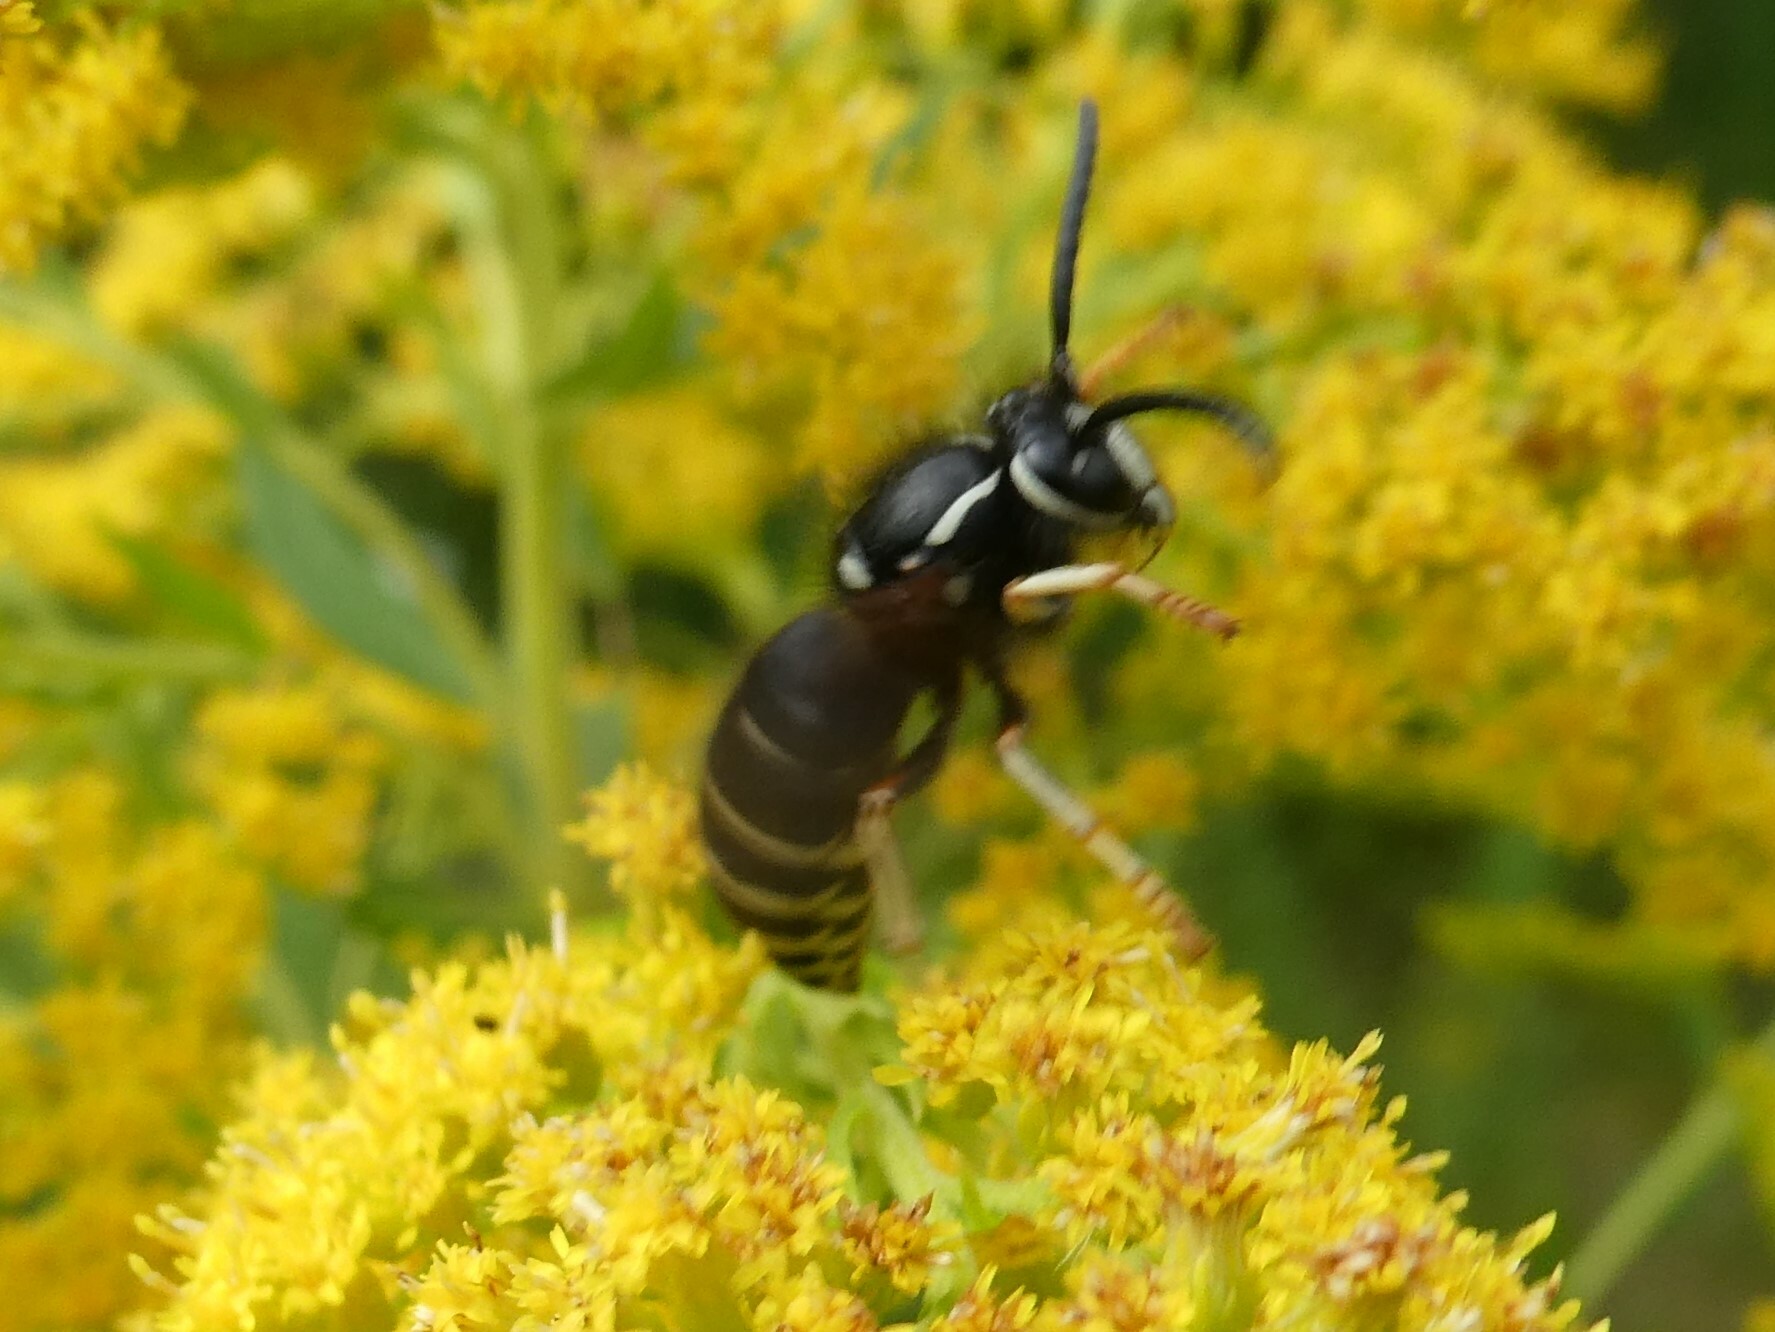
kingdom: Animalia
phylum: Arthropoda
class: Insecta
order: Hymenoptera
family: Vespidae
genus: Vespula
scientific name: Vespula consobrina
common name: Blackjacket
